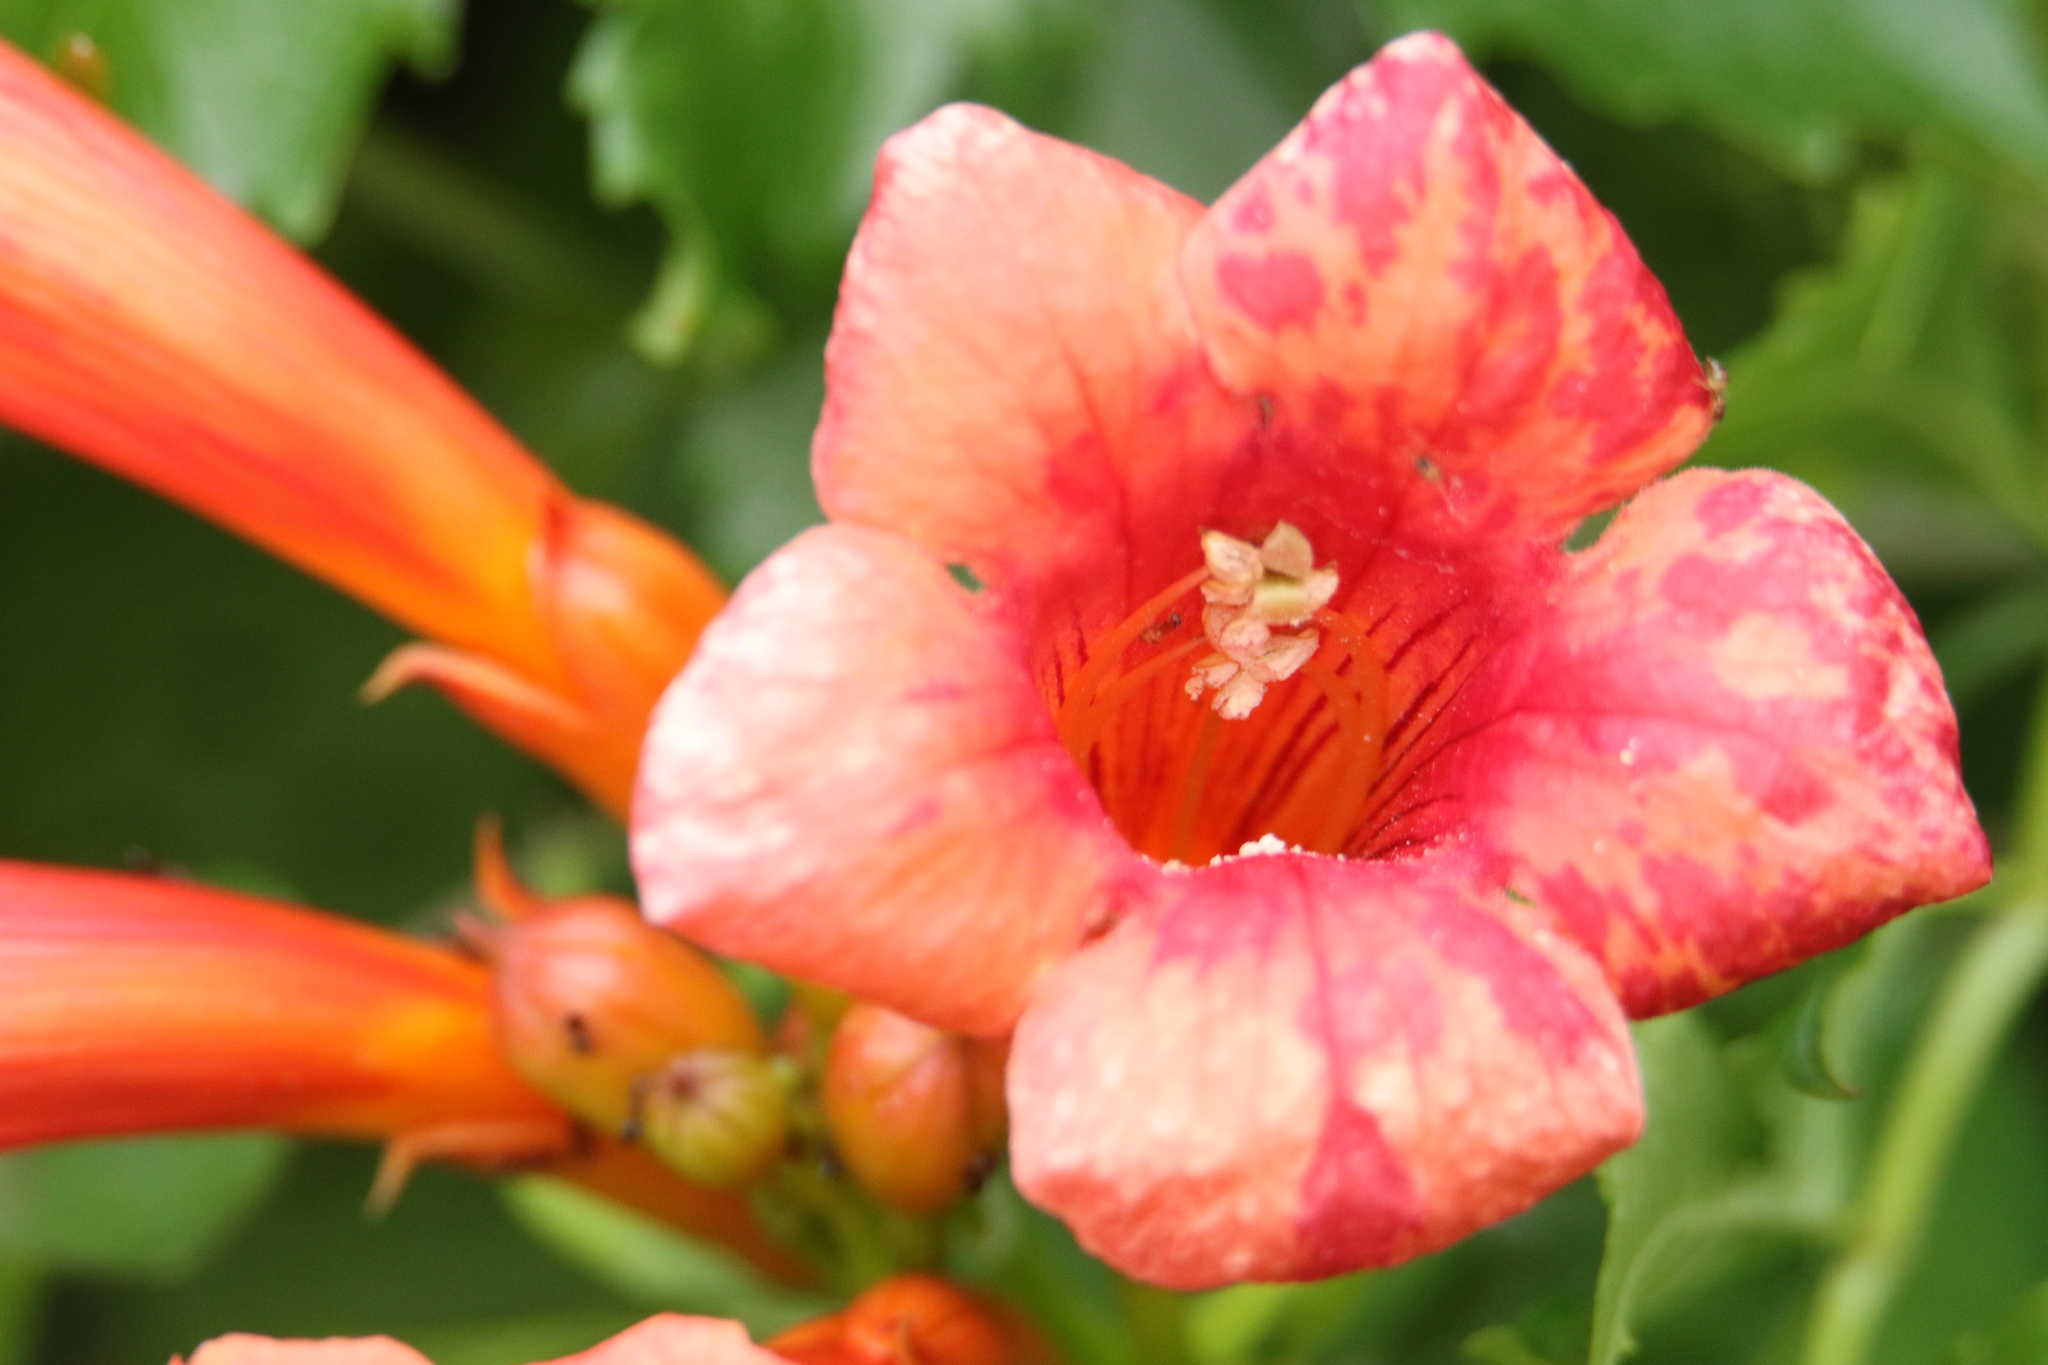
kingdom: Plantae
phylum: Tracheophyta
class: Magnoliopsida
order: Lamiales
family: Bignoniaceae
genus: Campsis
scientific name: Campsis radicans
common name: Trumpet-creeper
